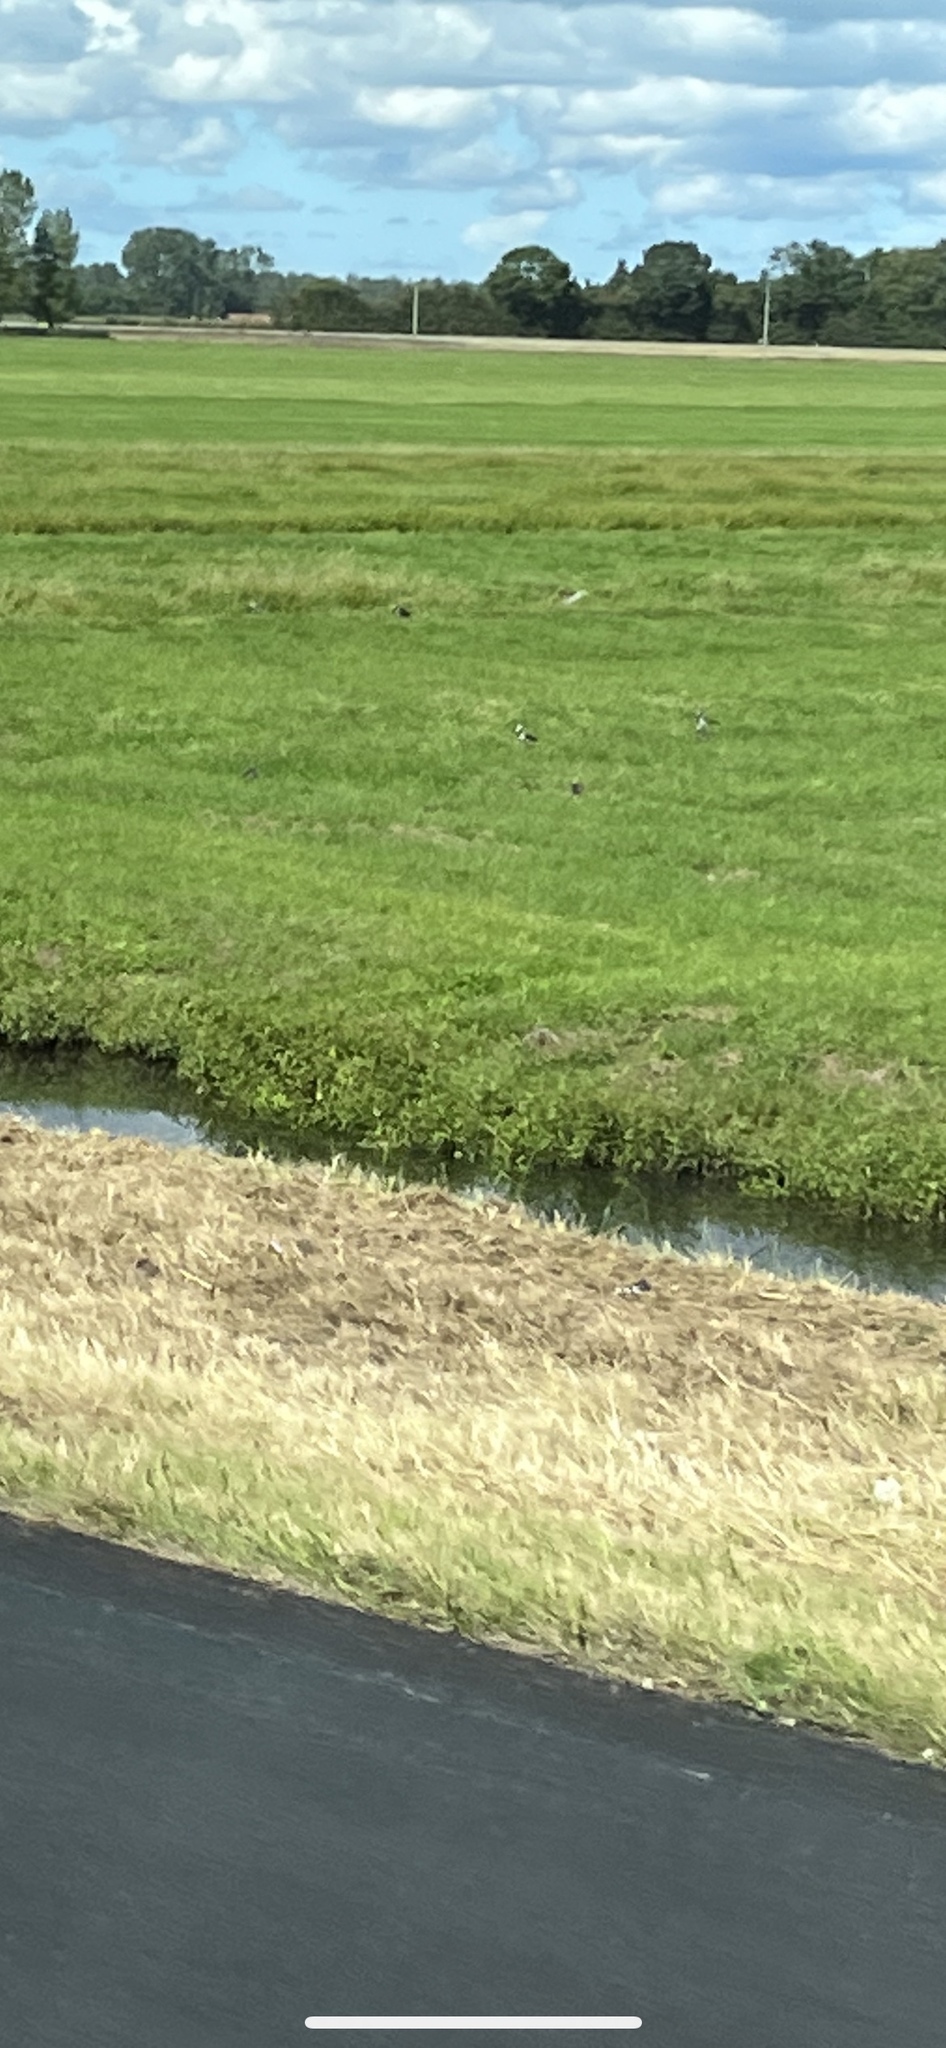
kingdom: Animalia
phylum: Chordata
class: Aves
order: Charadriiformes
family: Charadriidae
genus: Vanellus
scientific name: Vanellus vanellus
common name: Northern lapwing
